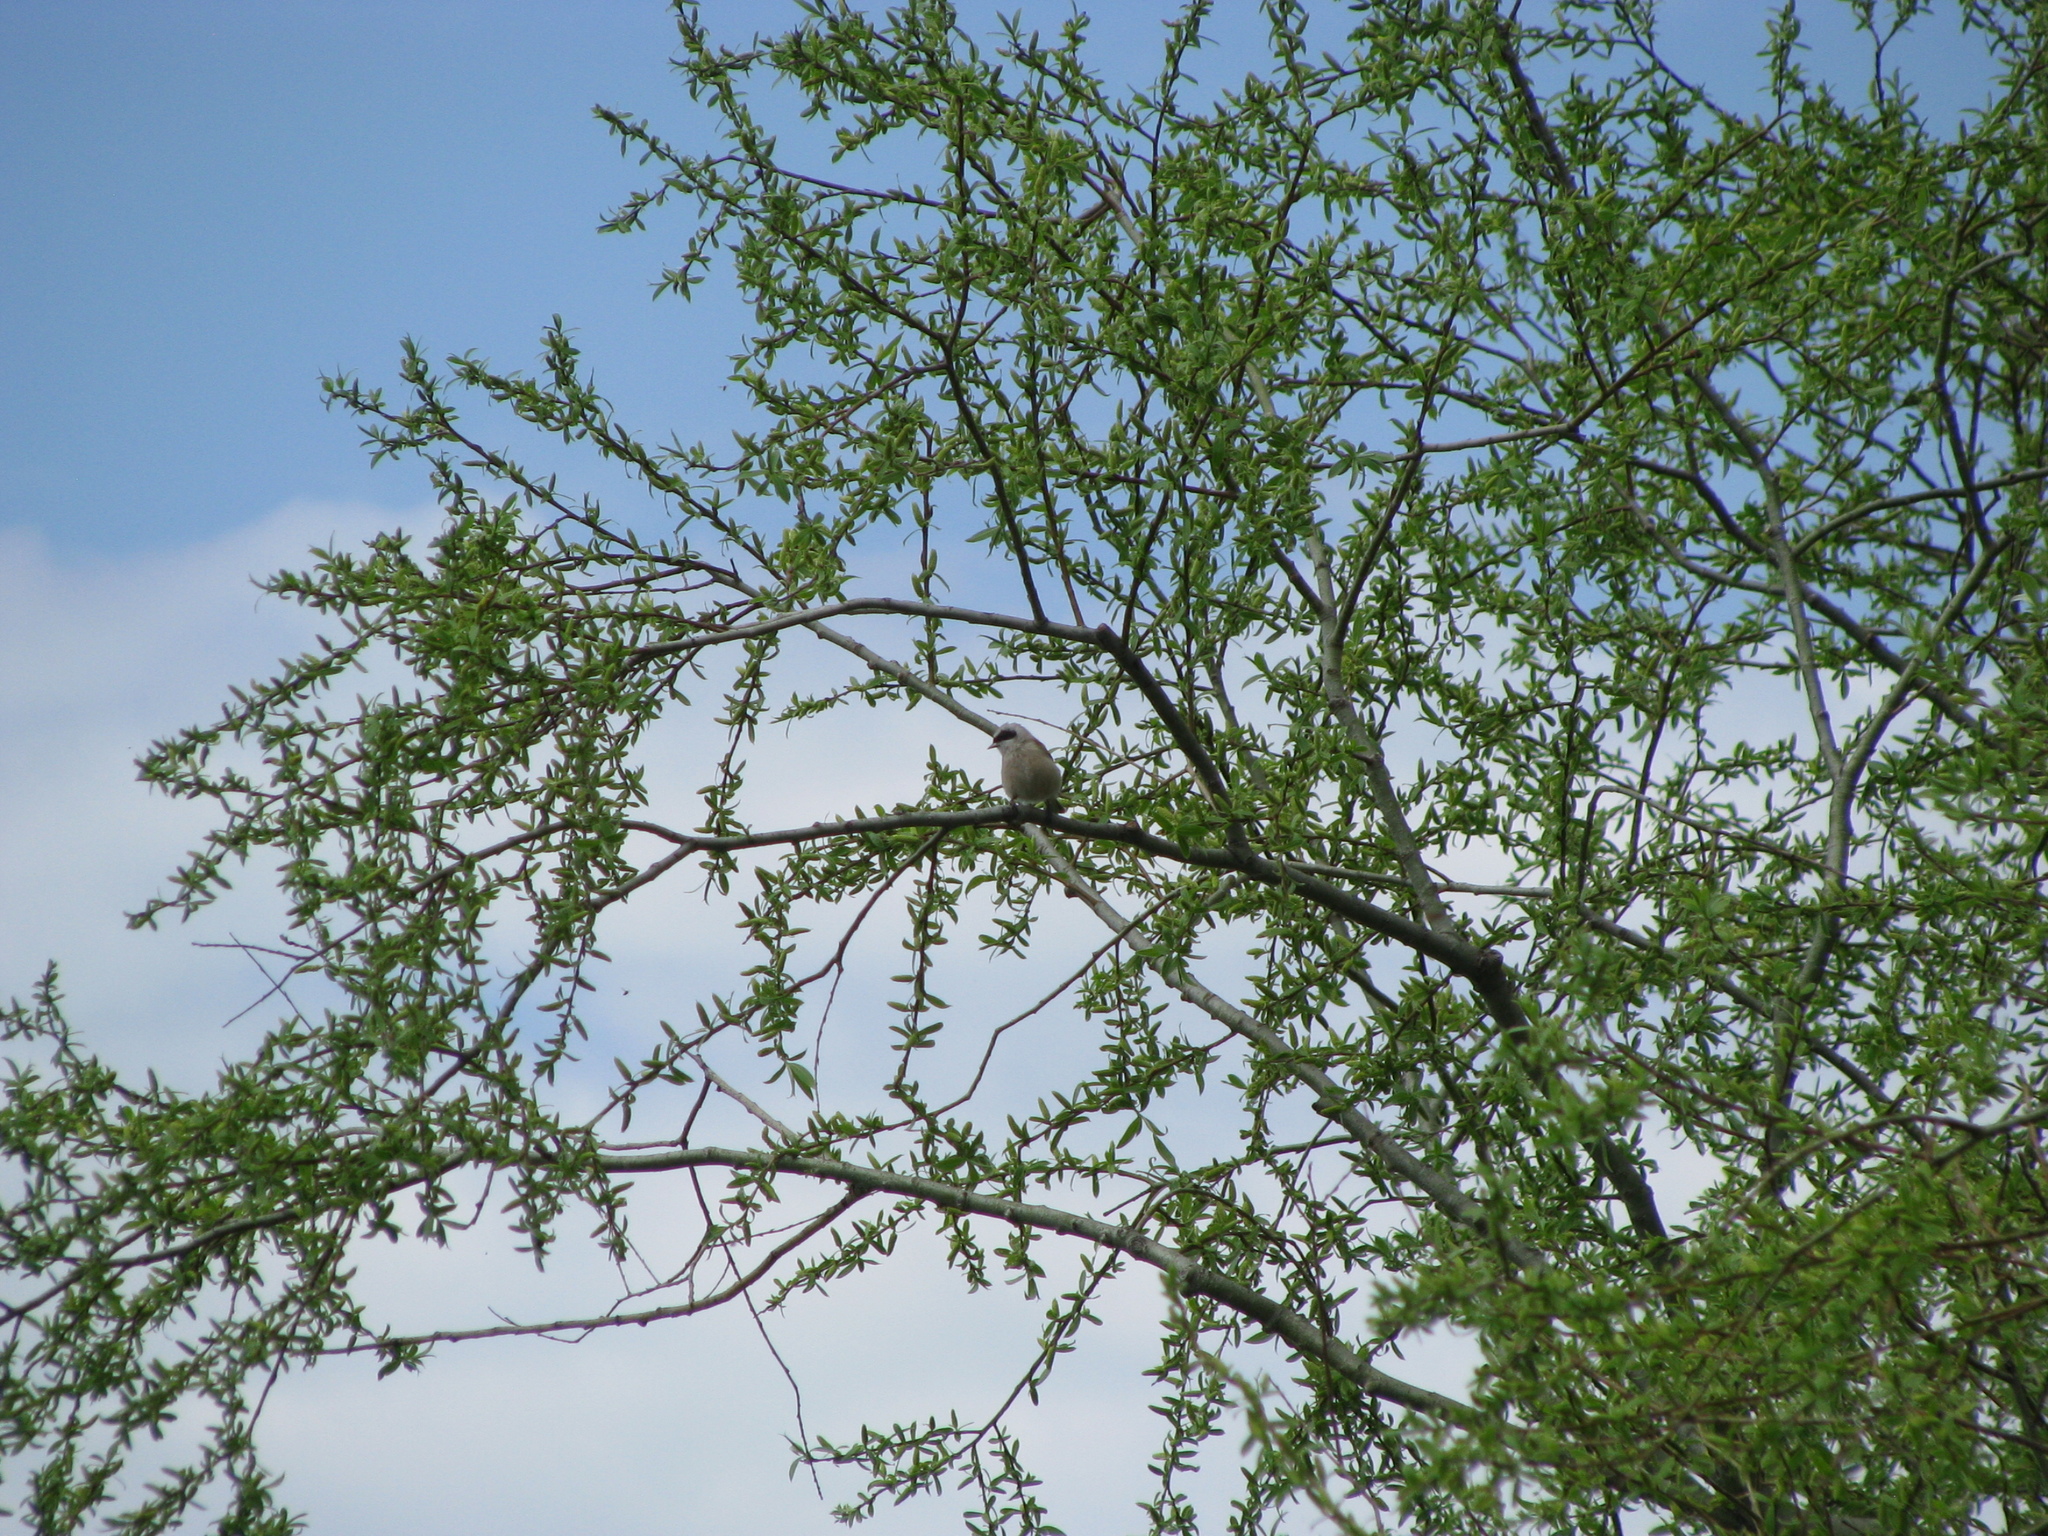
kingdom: Animalia
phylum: Chordata
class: Aves
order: Passeriformes
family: Remizidae
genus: Remiz
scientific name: Remiz pendulinus
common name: Eurasian penduline tit
